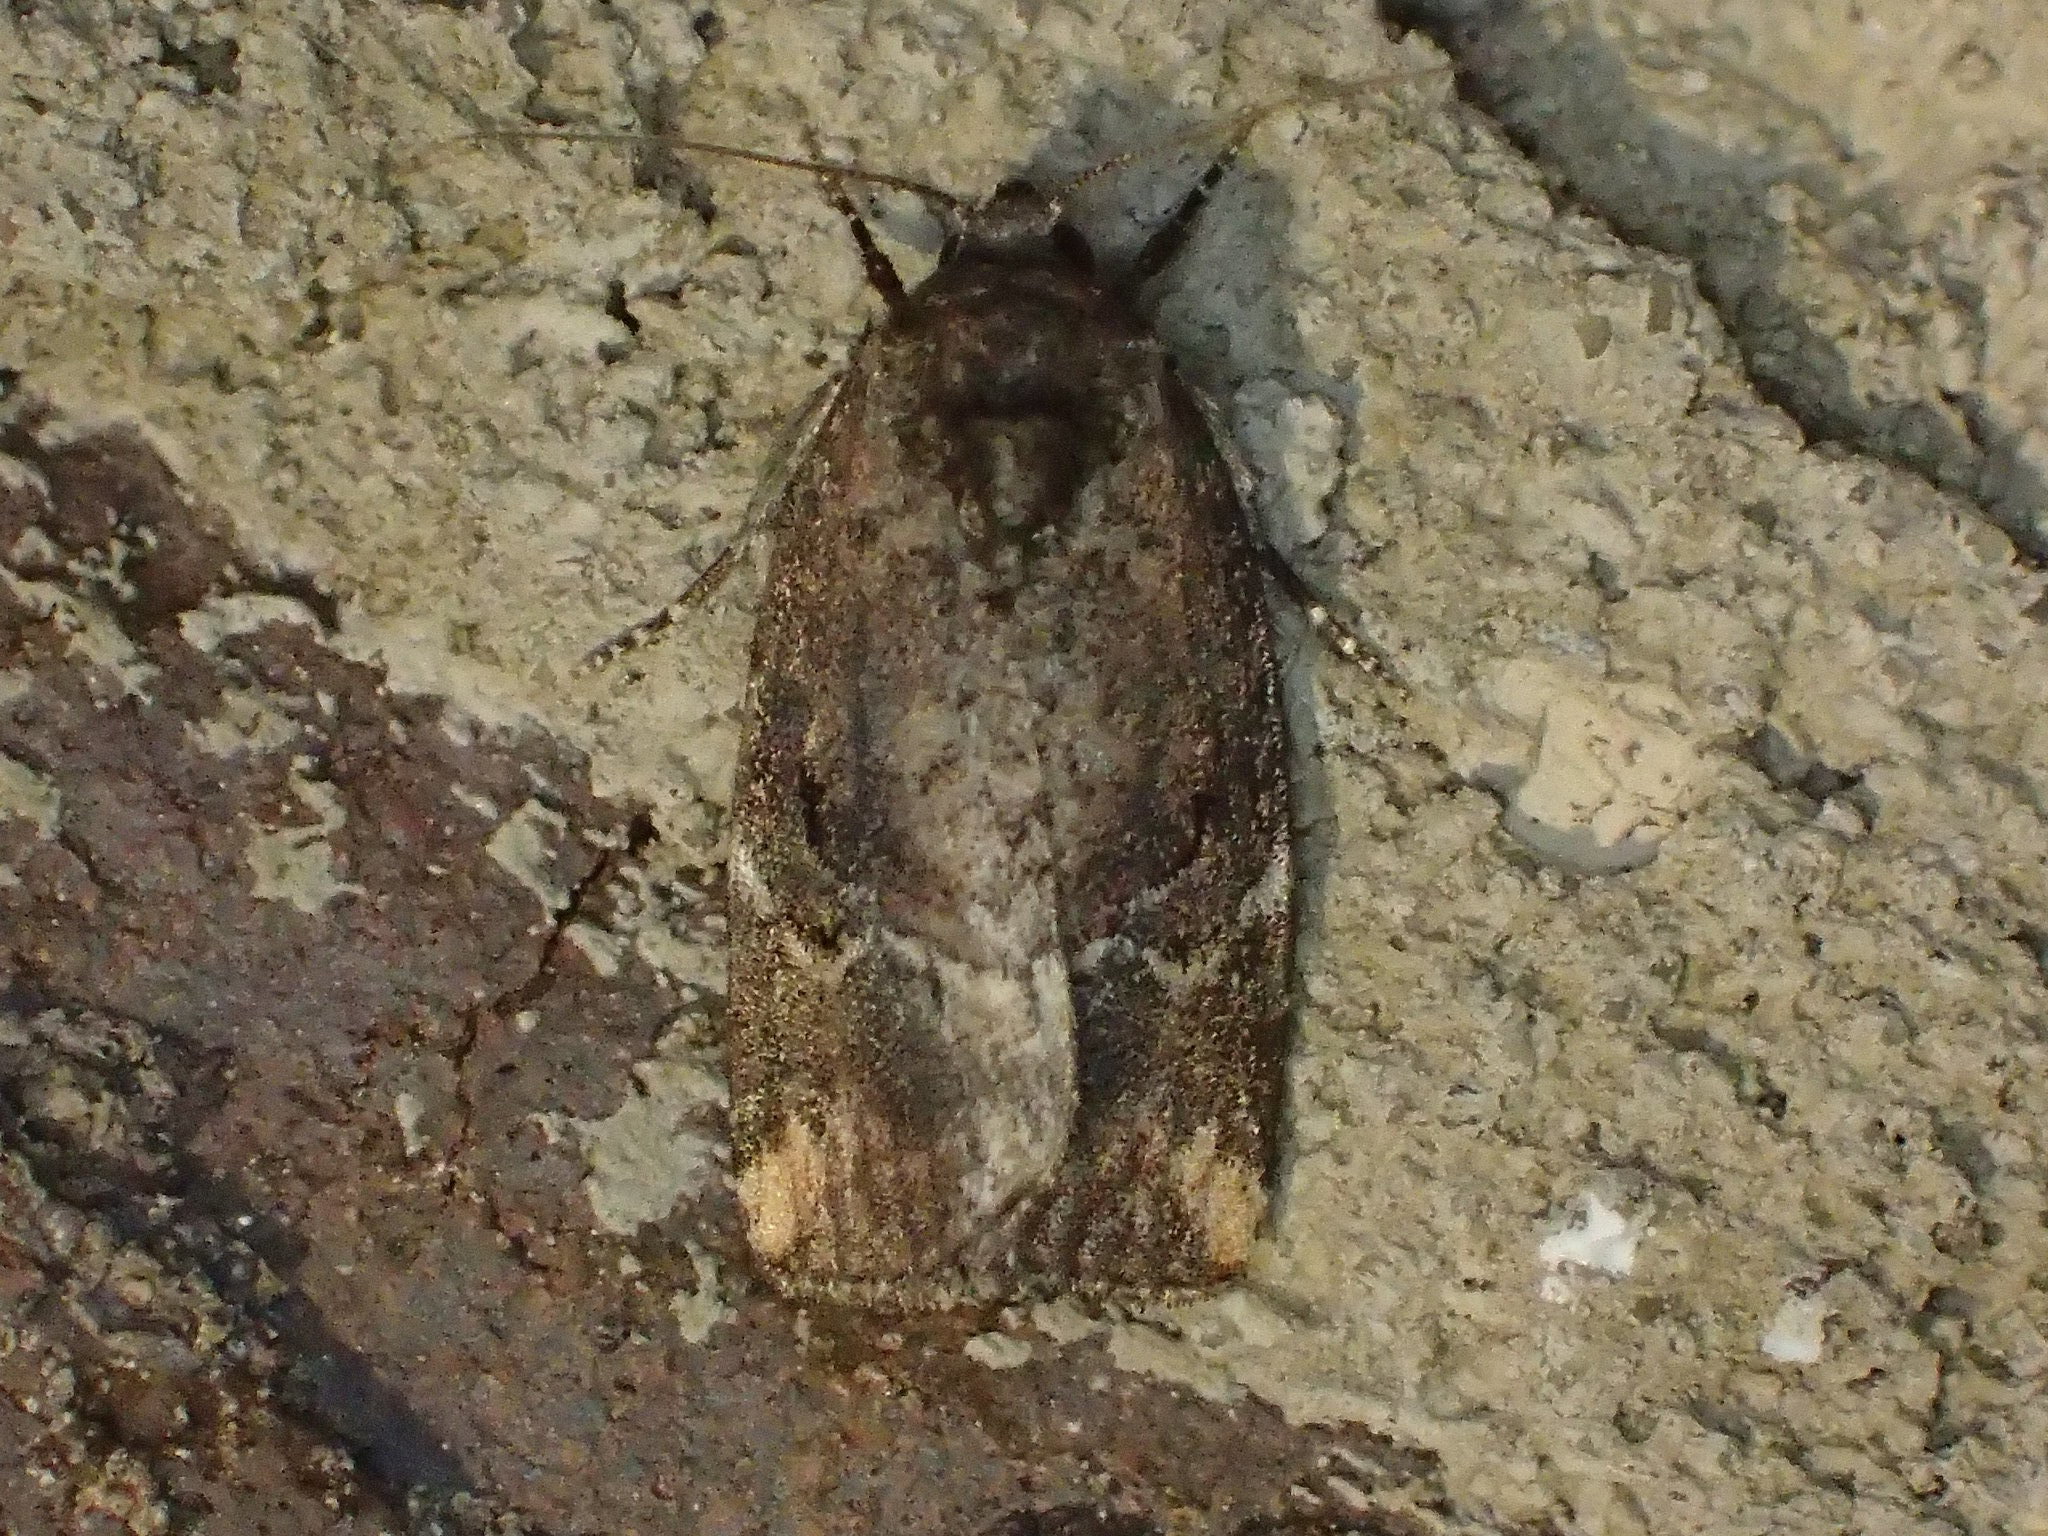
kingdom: Animalia
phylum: Arthropoda
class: Insecta
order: Lepidoptera
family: Noctuidae
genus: Elaphria
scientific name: Elaphria versicolor
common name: Fir harlequin
